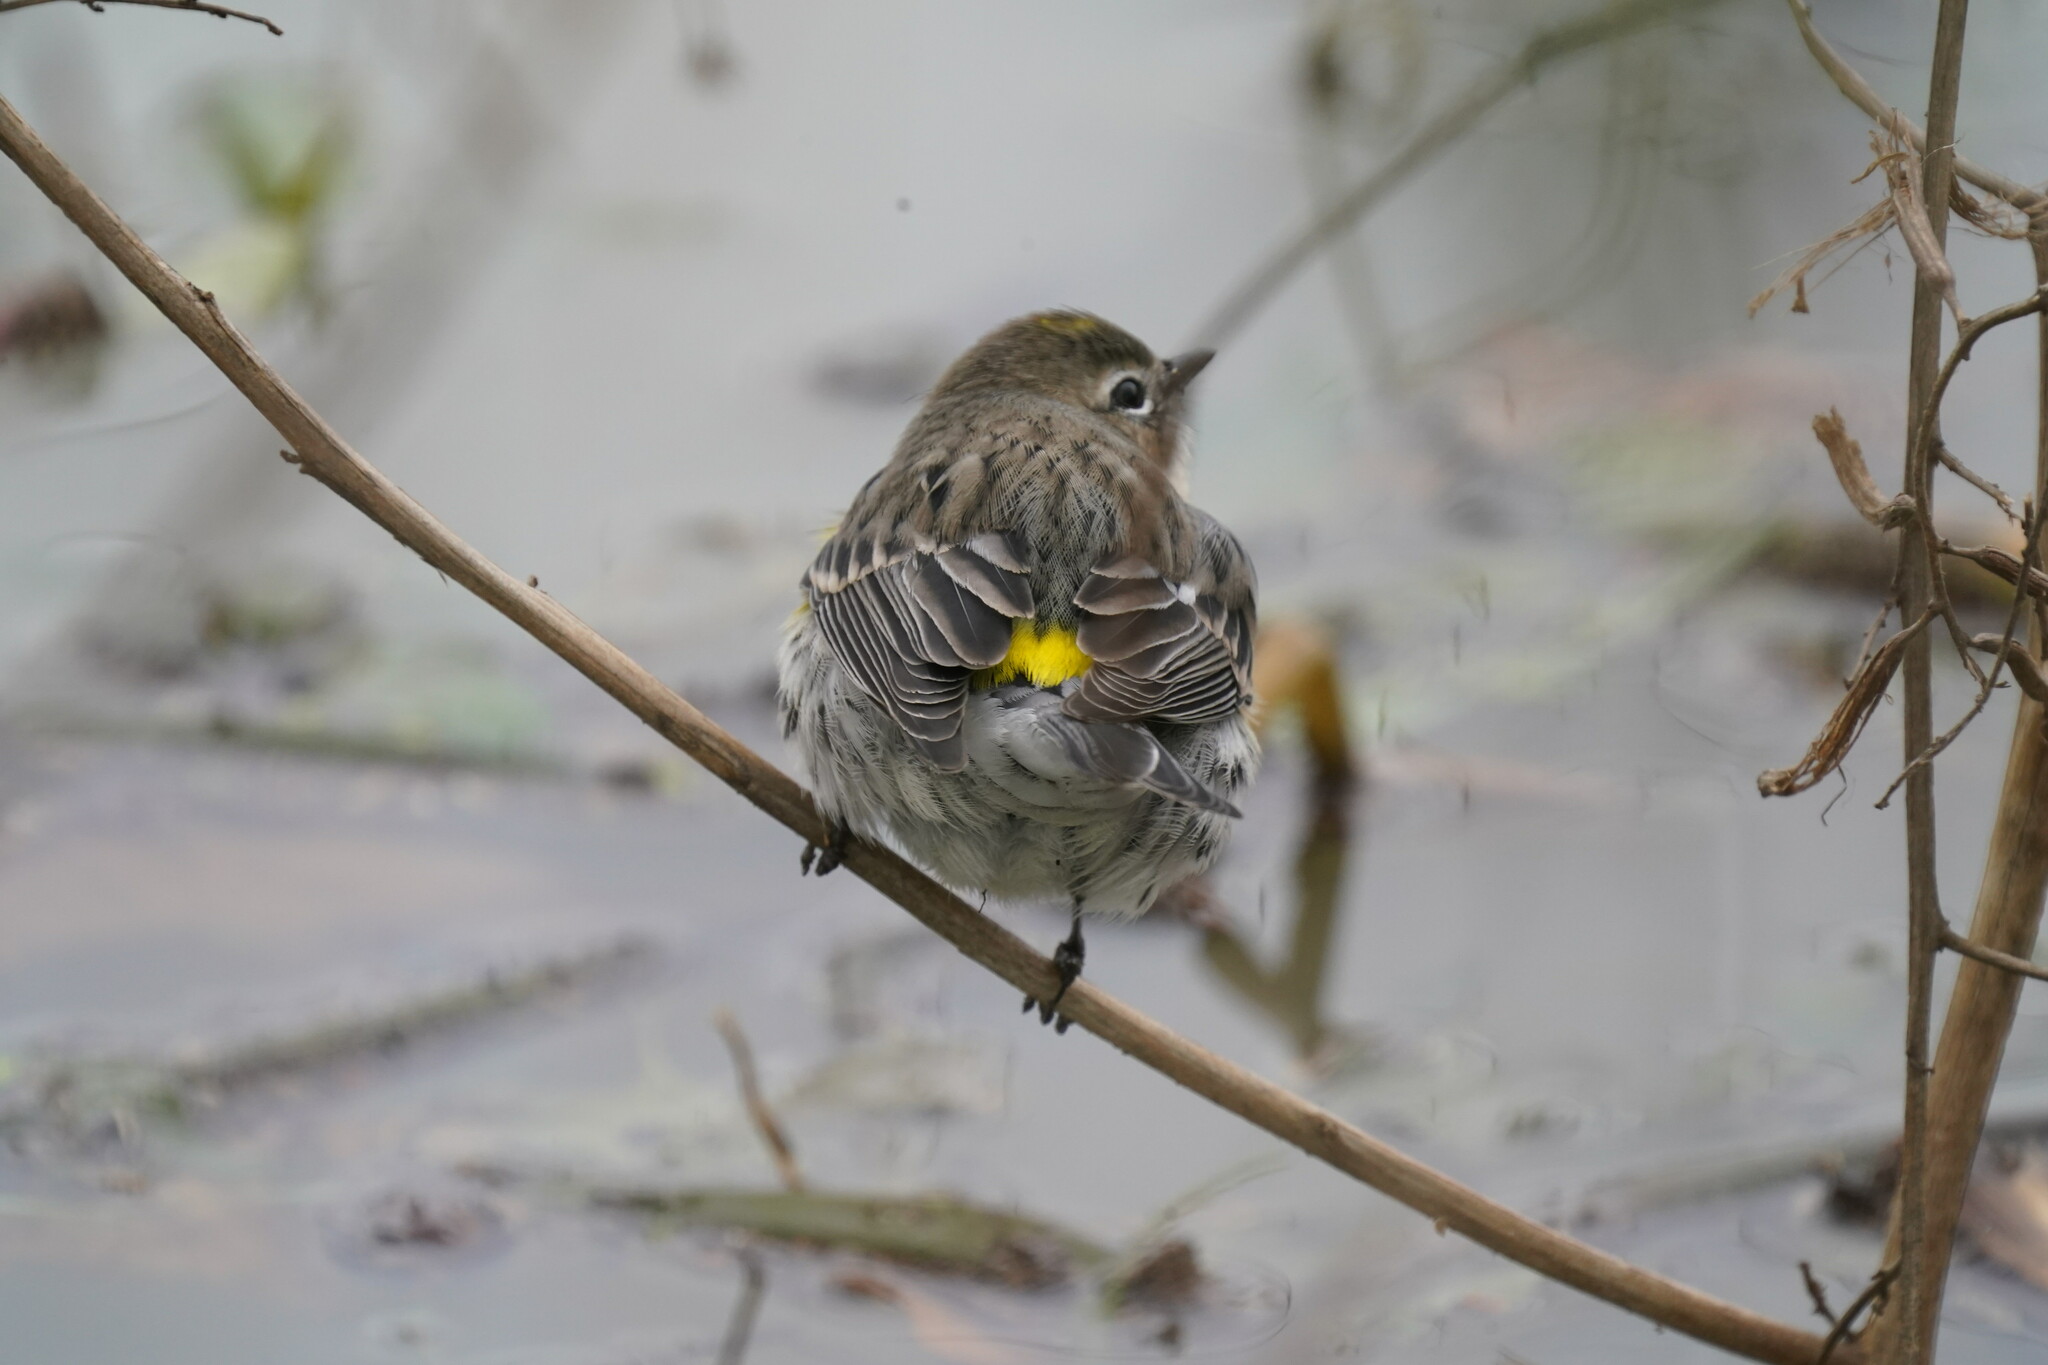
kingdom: Animalia
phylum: Chordata
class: Aves
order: Passeriformes
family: Parulidae
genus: Setophaga
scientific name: Setophaga coronata
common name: Myrtle warbler
